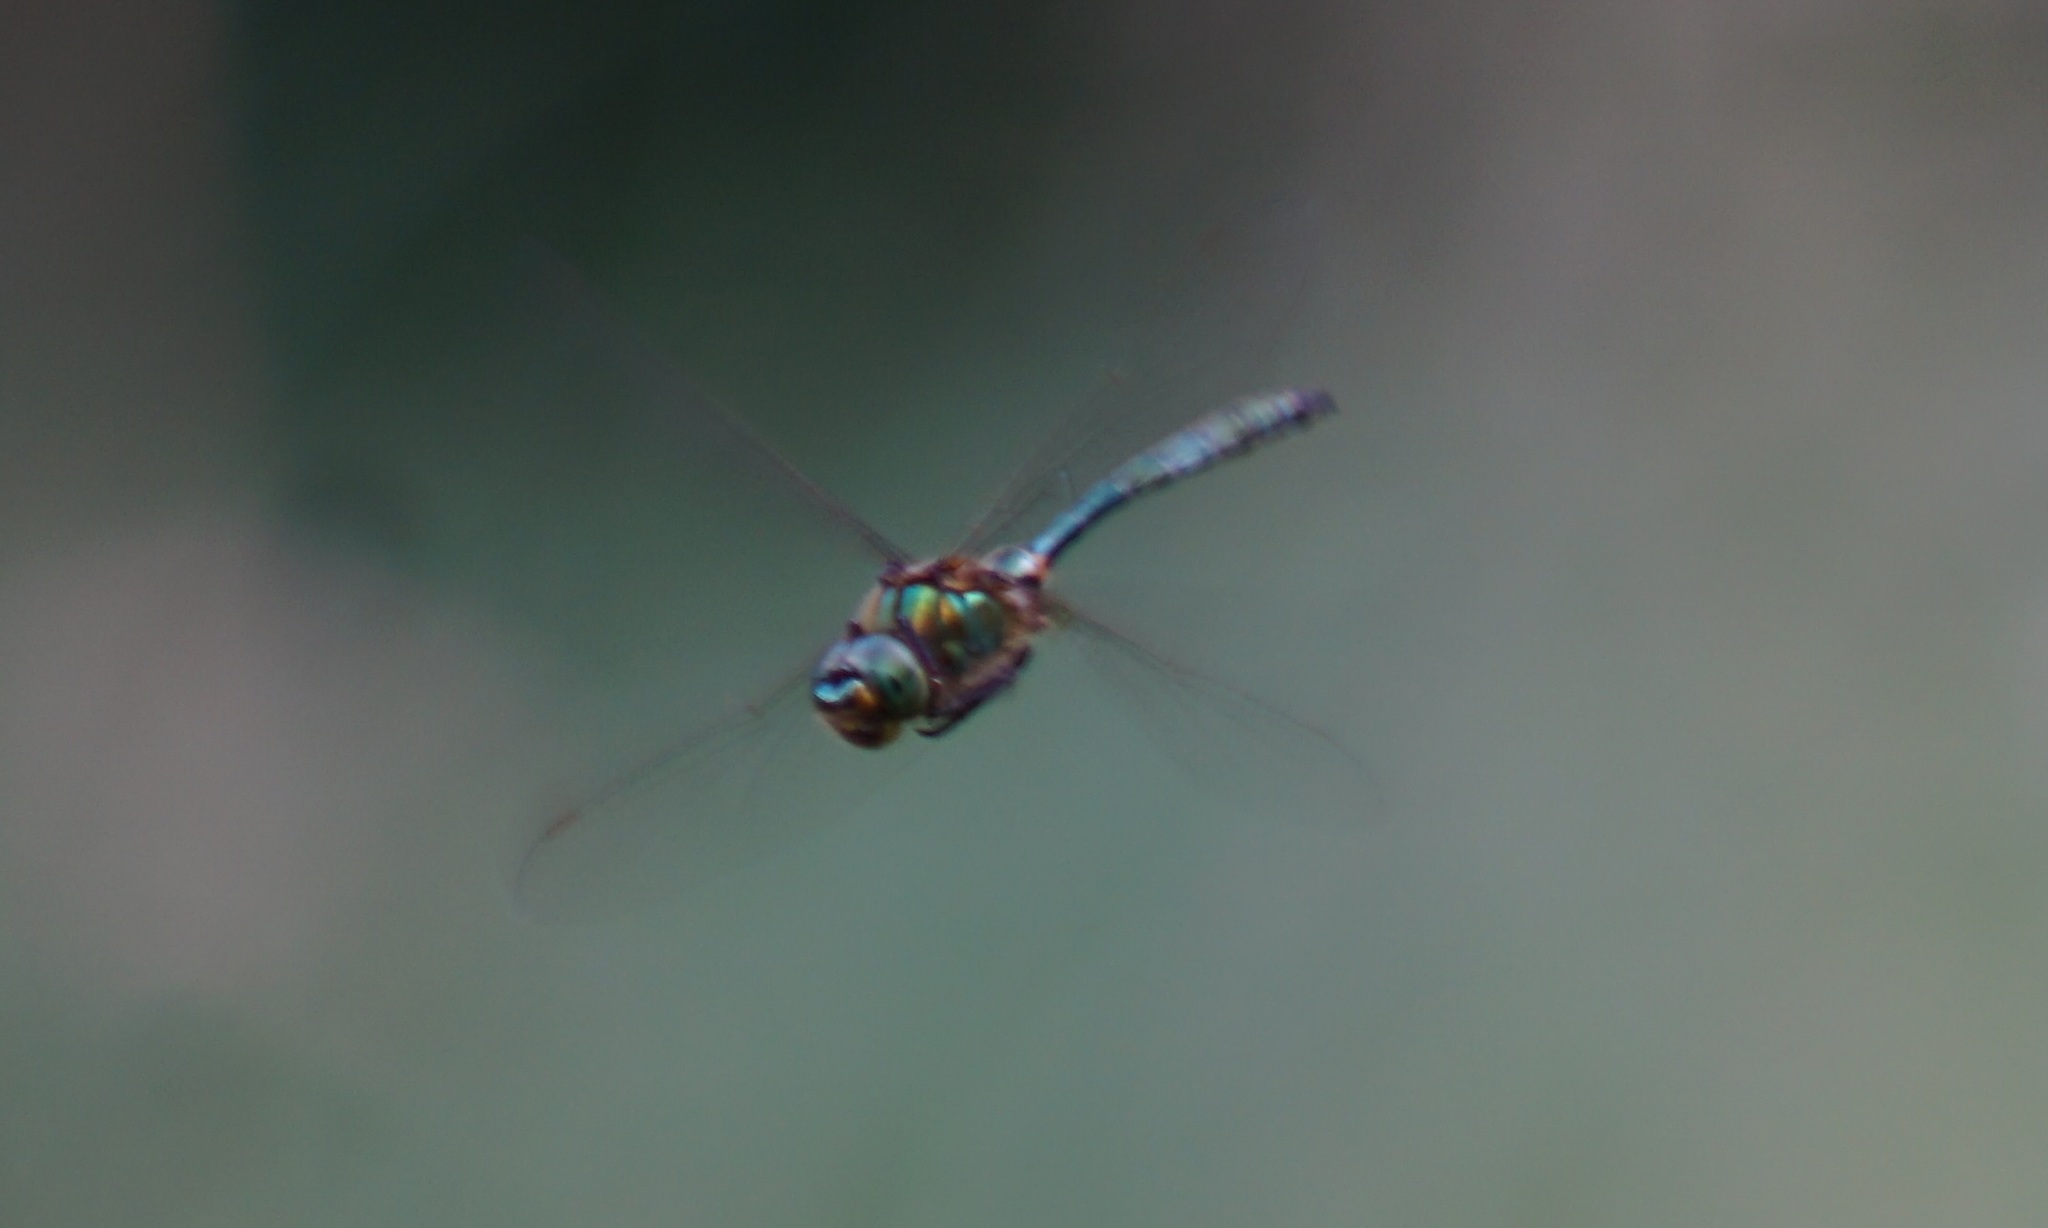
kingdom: Animalia
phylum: Arthropoda
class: Insecta
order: Odonata
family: Corduliidae
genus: Somatochlora
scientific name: Somatochlora metallica
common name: Brilliant emerald
